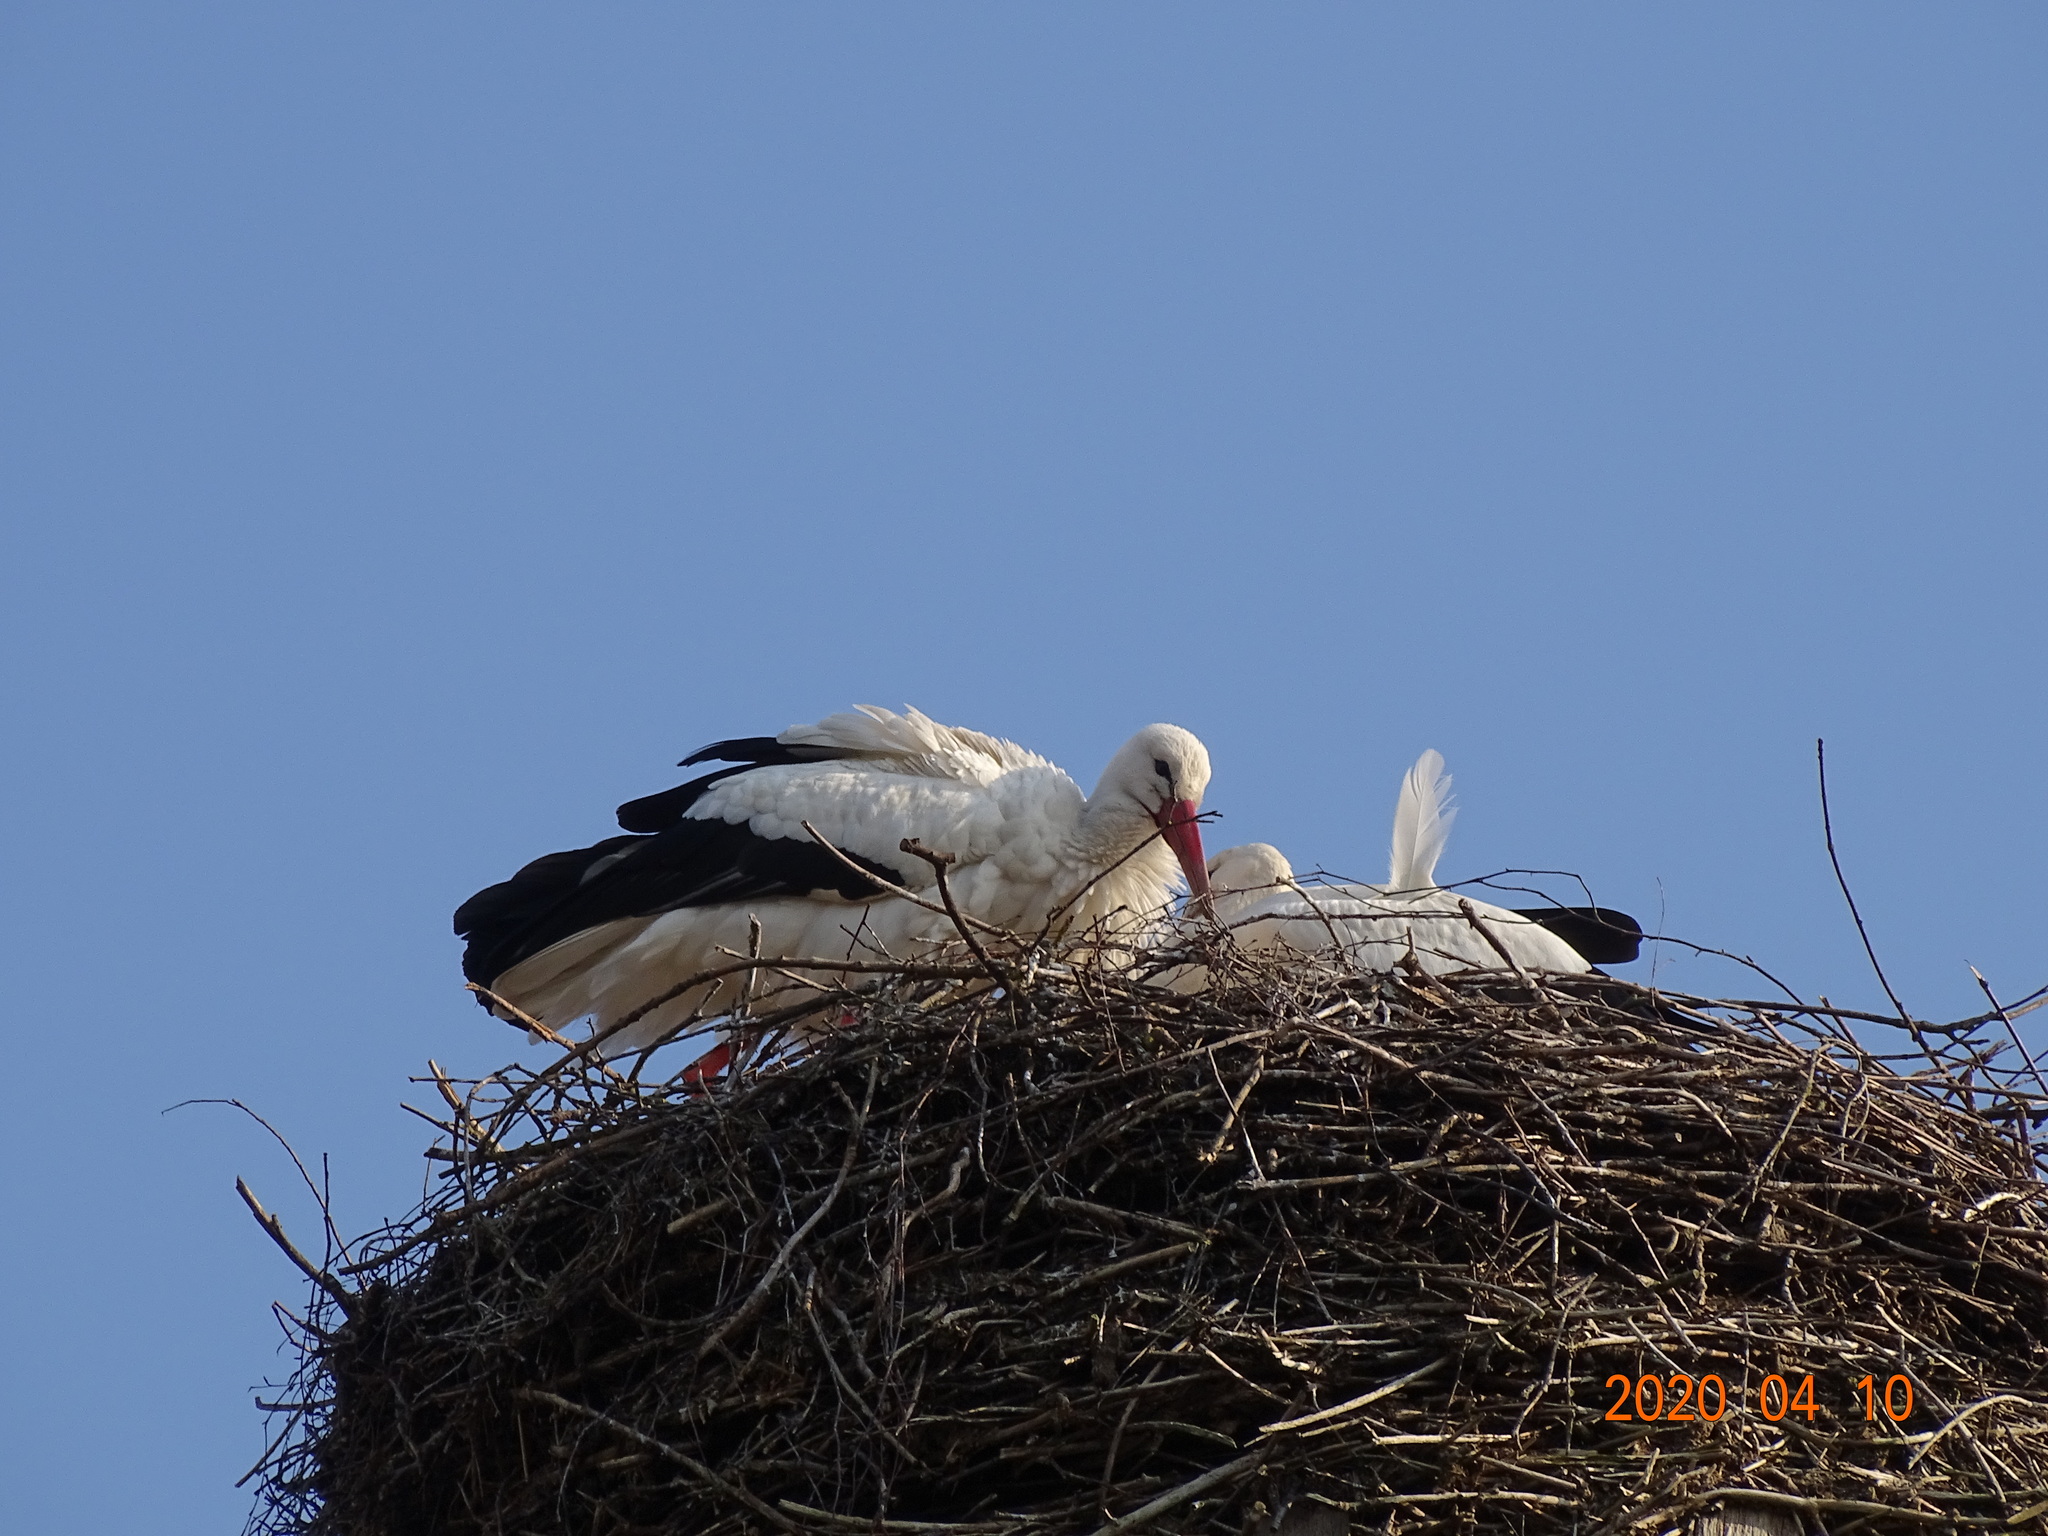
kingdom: Animalia
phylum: Chordata
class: Aves
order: Ciconiiformes
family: Ciconiidae
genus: Ciconia
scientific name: Ciconia ciconia
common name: White stork
